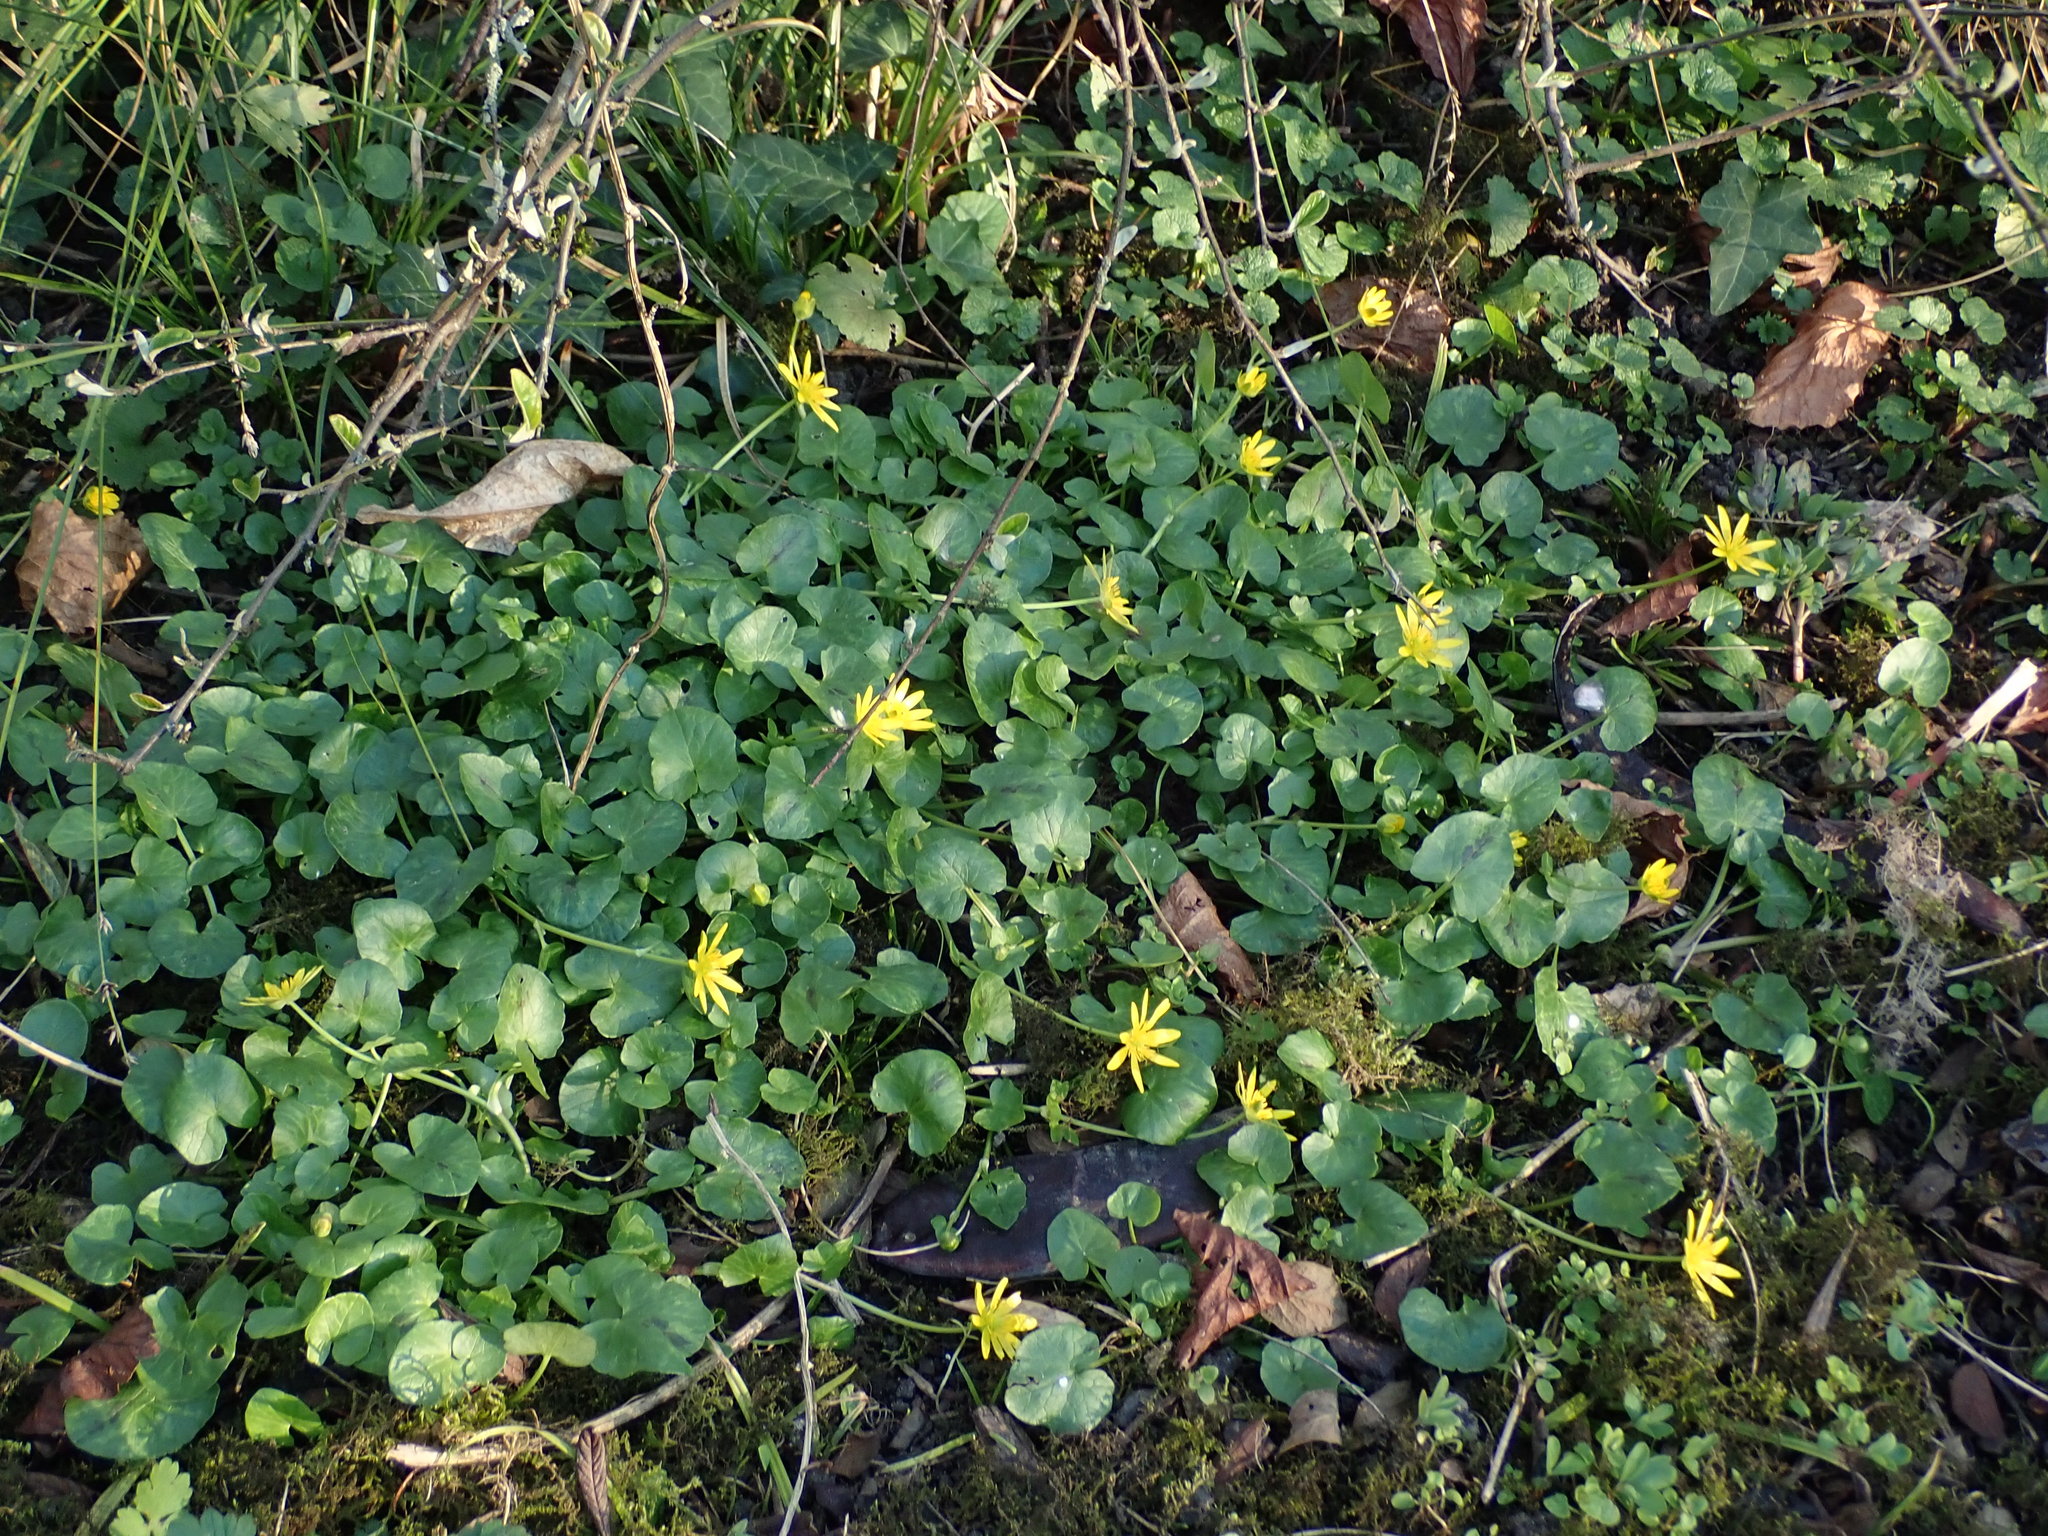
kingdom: Plantae
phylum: Tracheophyta
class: Magnoliopsida
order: Ranunculales
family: Ranunculaceae
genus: Ficaria
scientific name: Ficaria verna
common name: Lesser celandine
